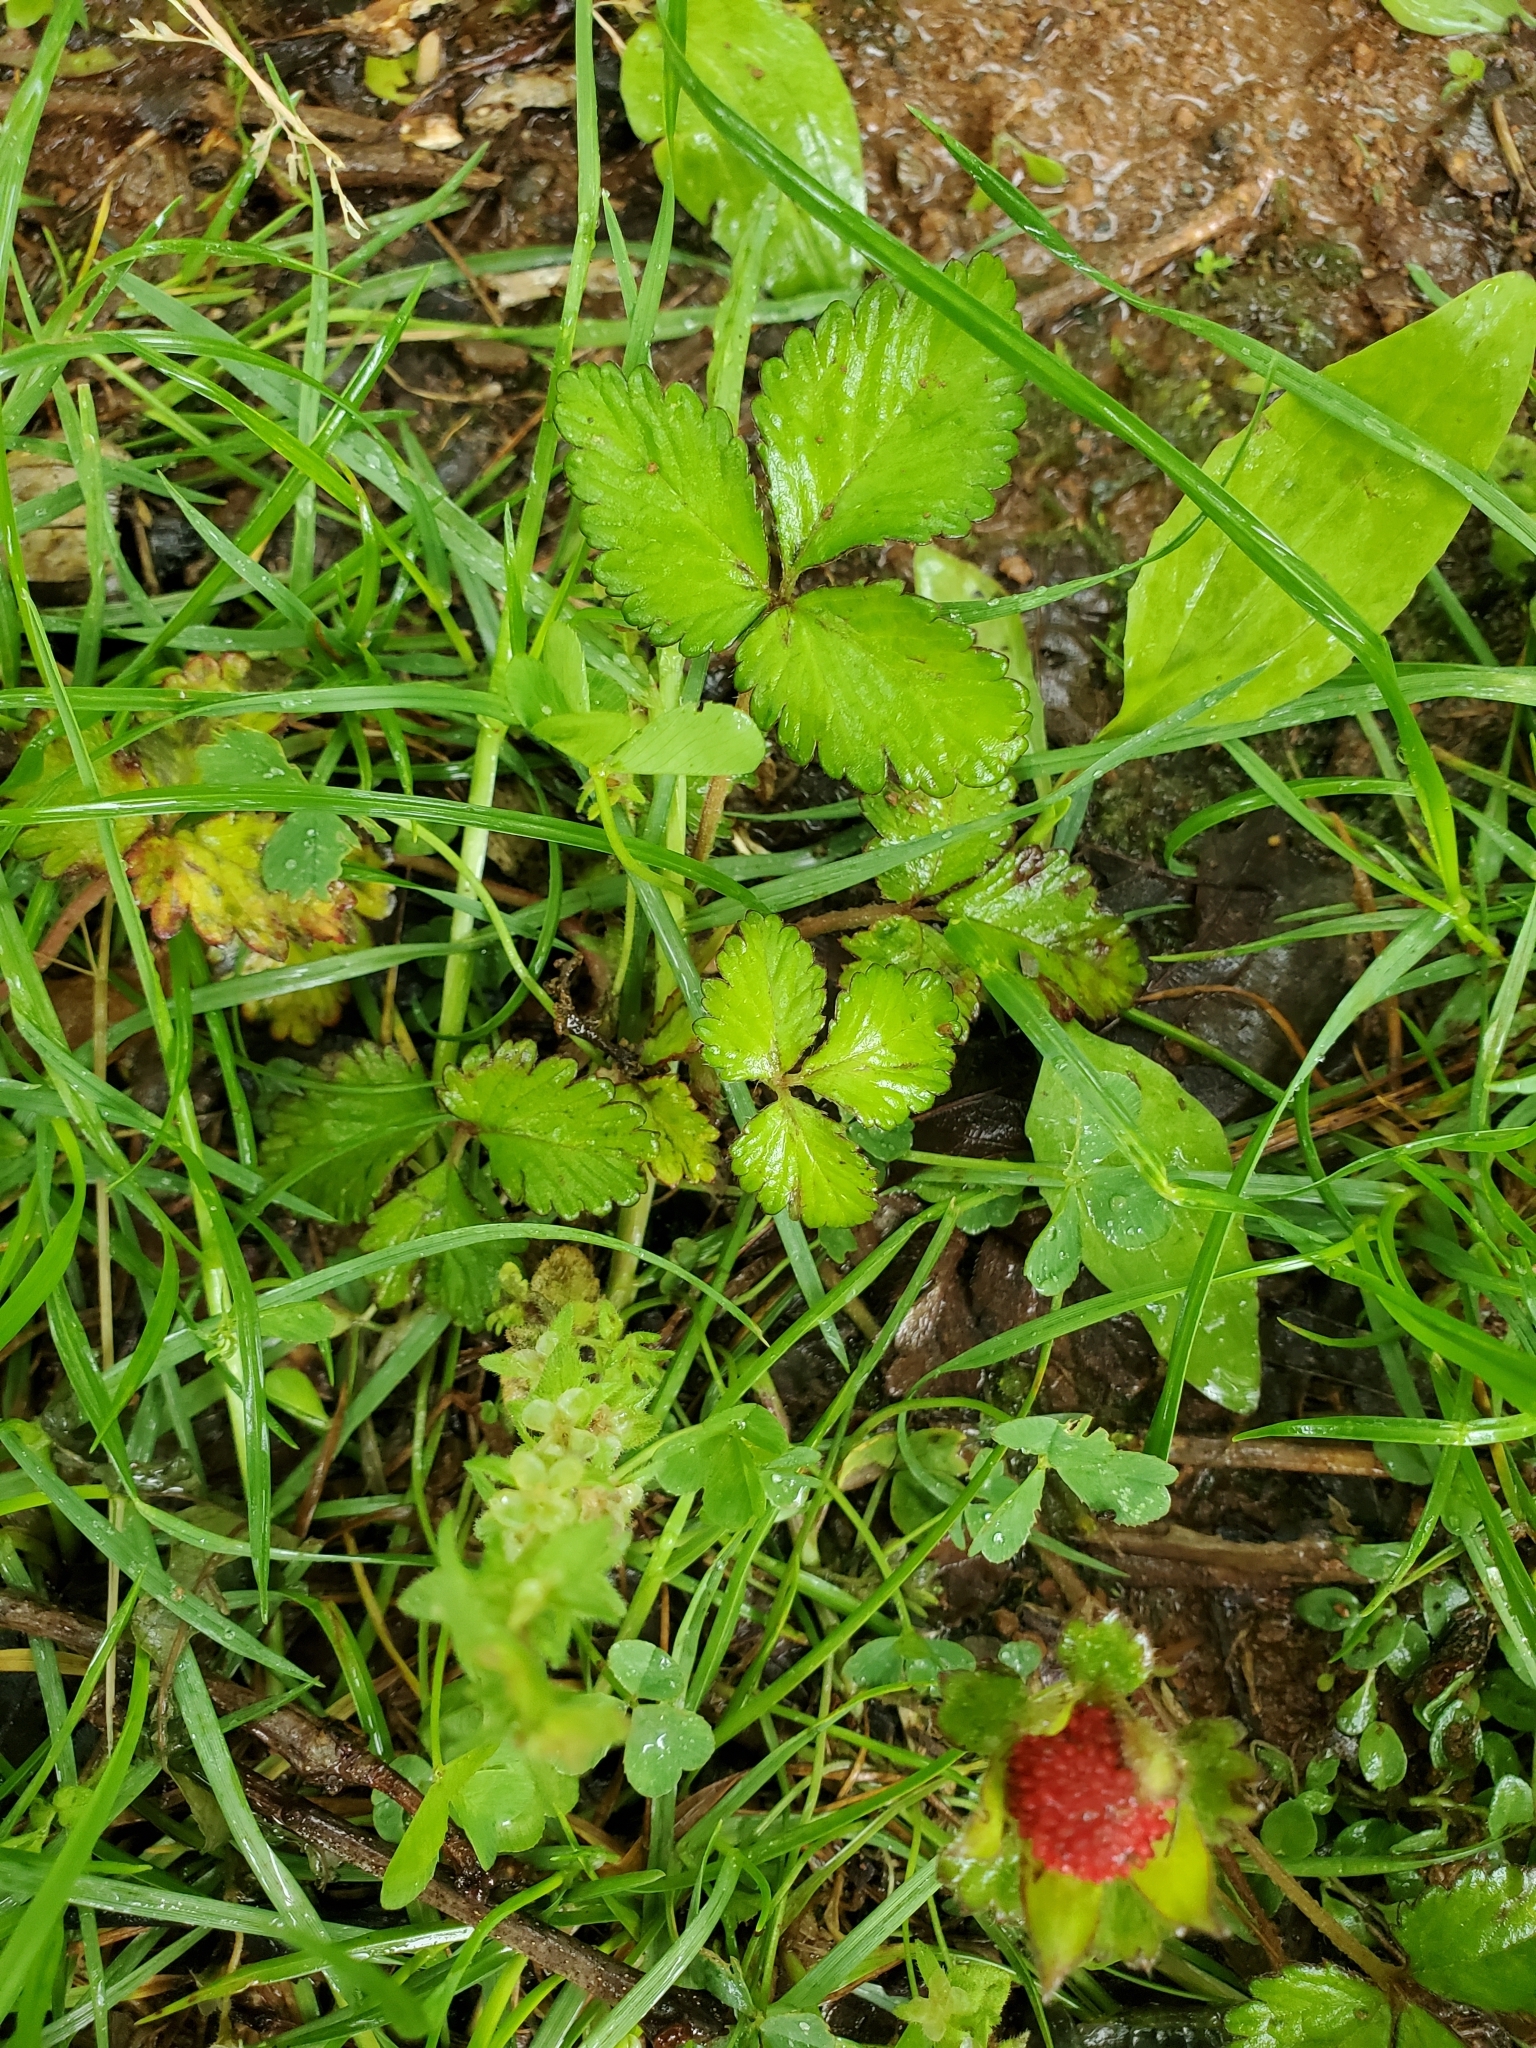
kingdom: Plantae
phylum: Tracheophyta
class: Magnoliopsida
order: Rosales
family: Rosaceae
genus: Potentilla
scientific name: Potentilla indica
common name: Yellow-flowered strawberry
